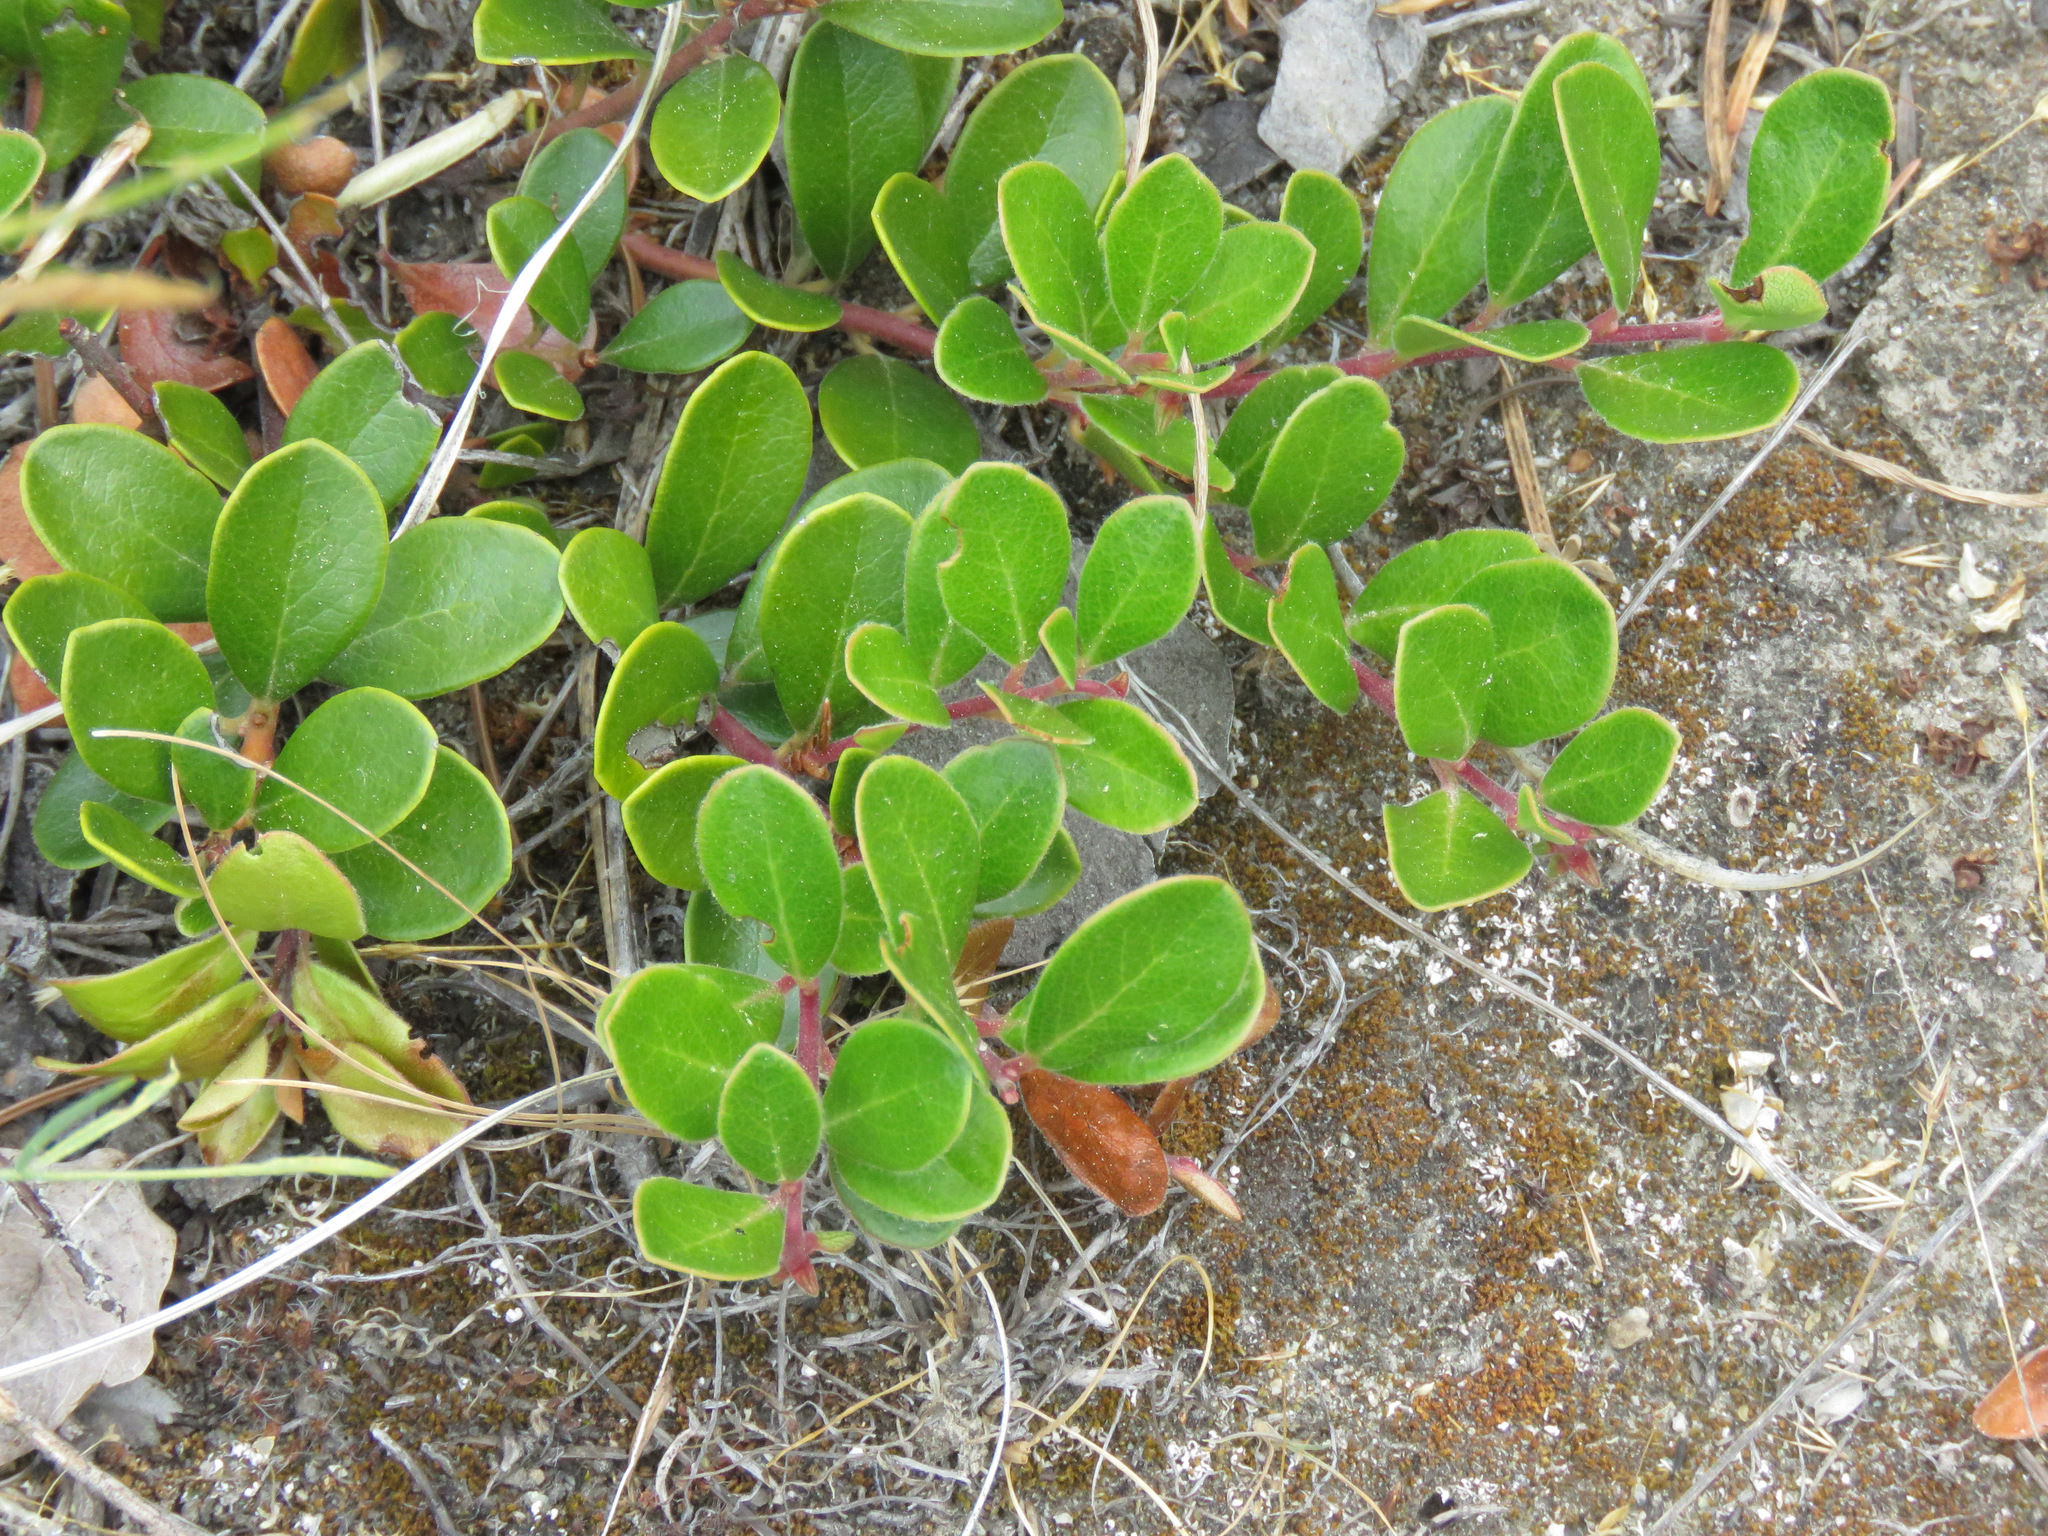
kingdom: Plantae
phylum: Tracheophyta
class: Magnoliopsida
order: Ericales
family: Ericaceae
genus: Arctostaphylos
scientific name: Arctostaphylos uva-ursi
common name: Bearberry
